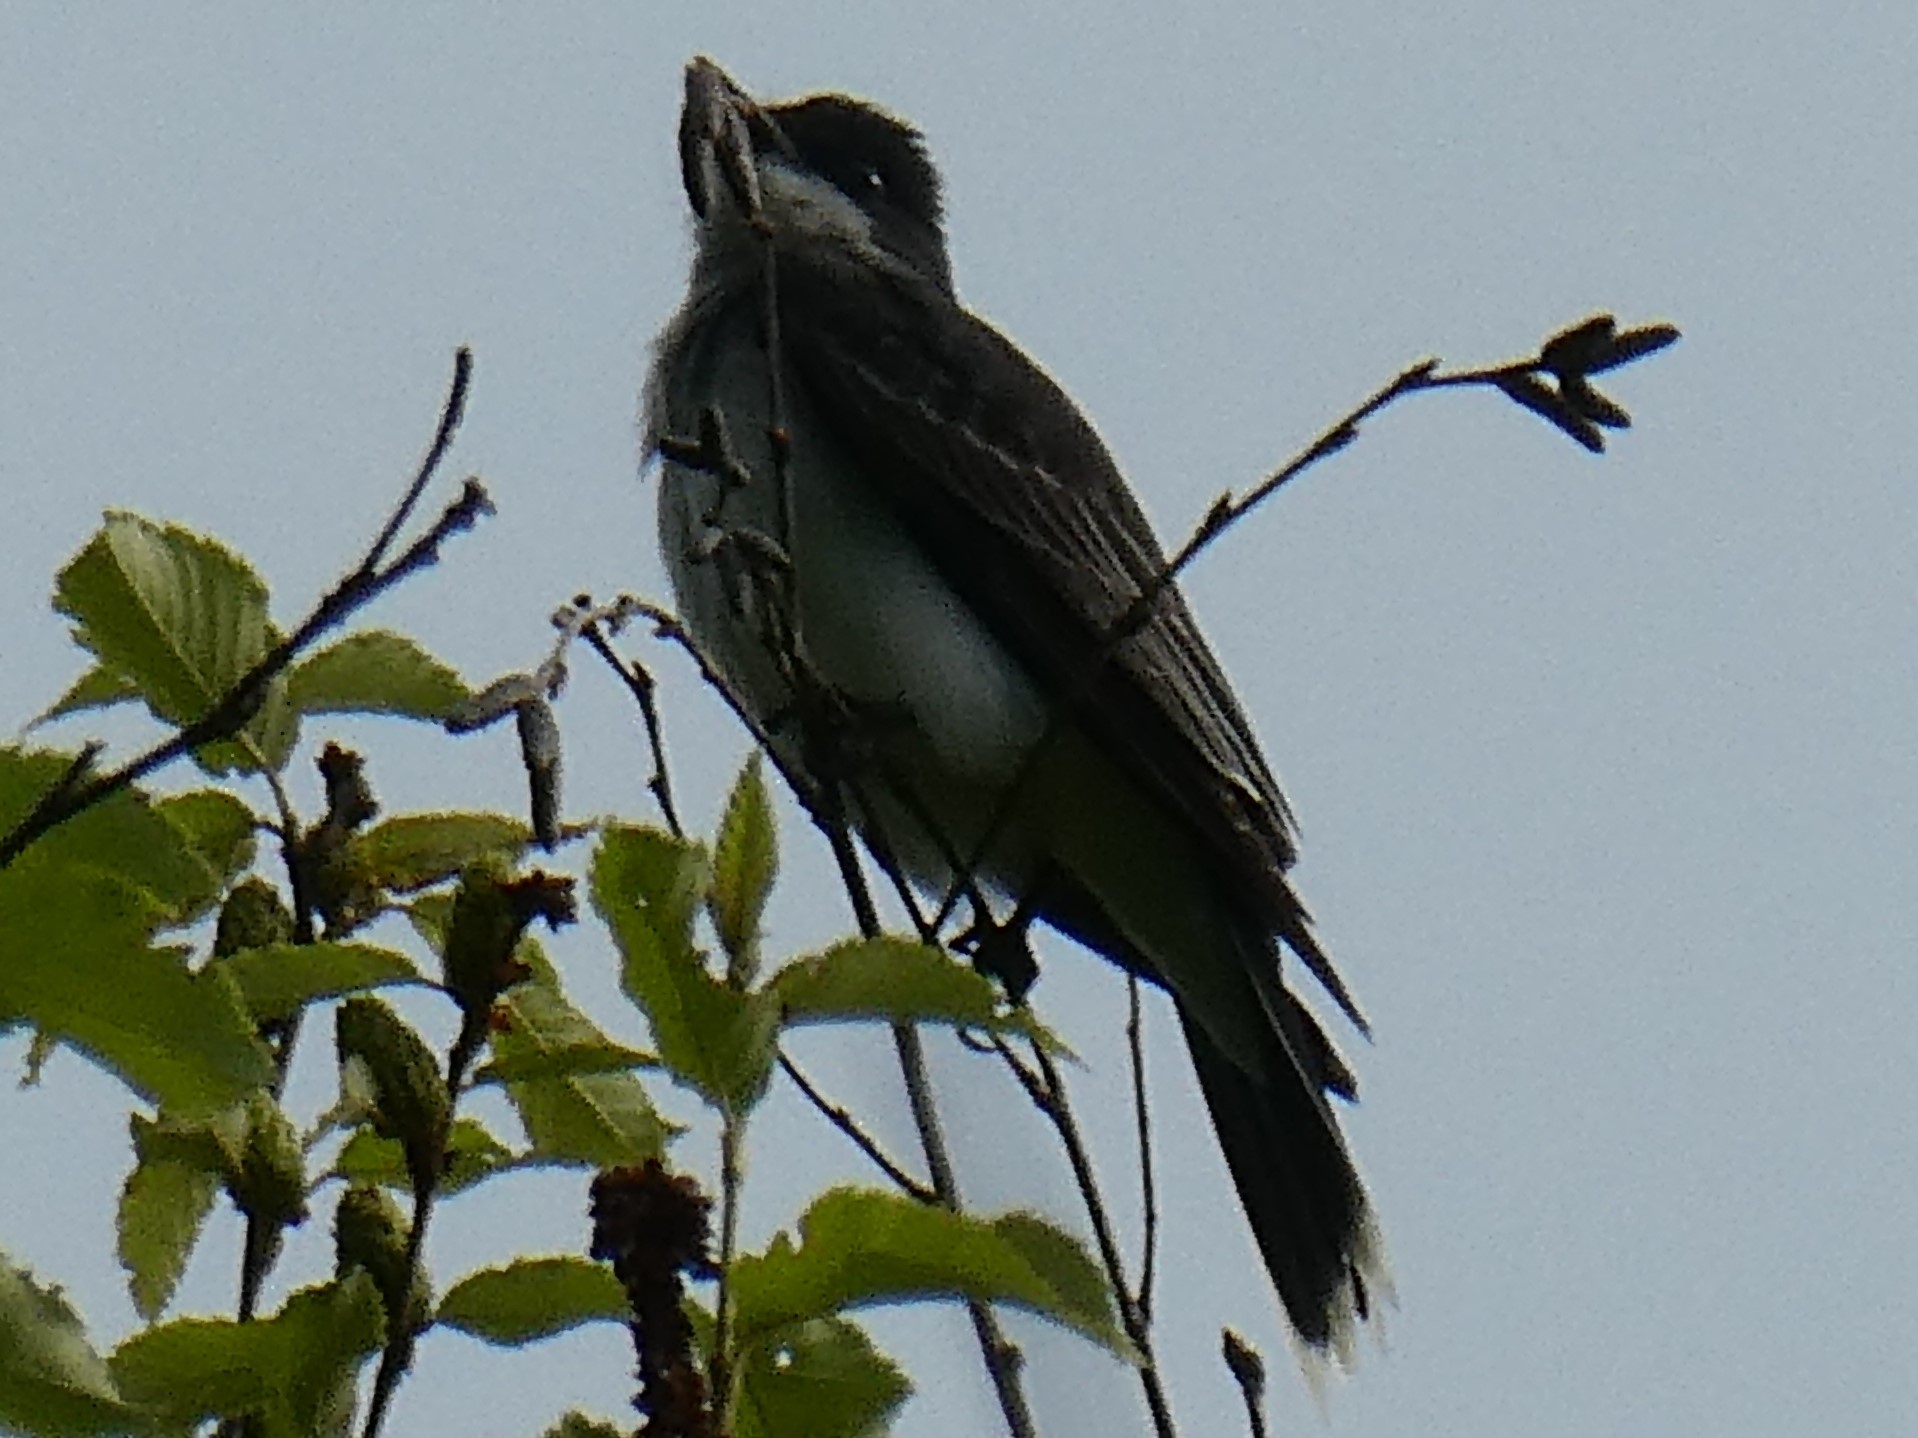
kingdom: Animalia
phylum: Chordata
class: Aves
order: Passeriformes
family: Tyrannidae
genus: Tyrannus
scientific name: Tyrannus tyrannus
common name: Eastern kingbird
